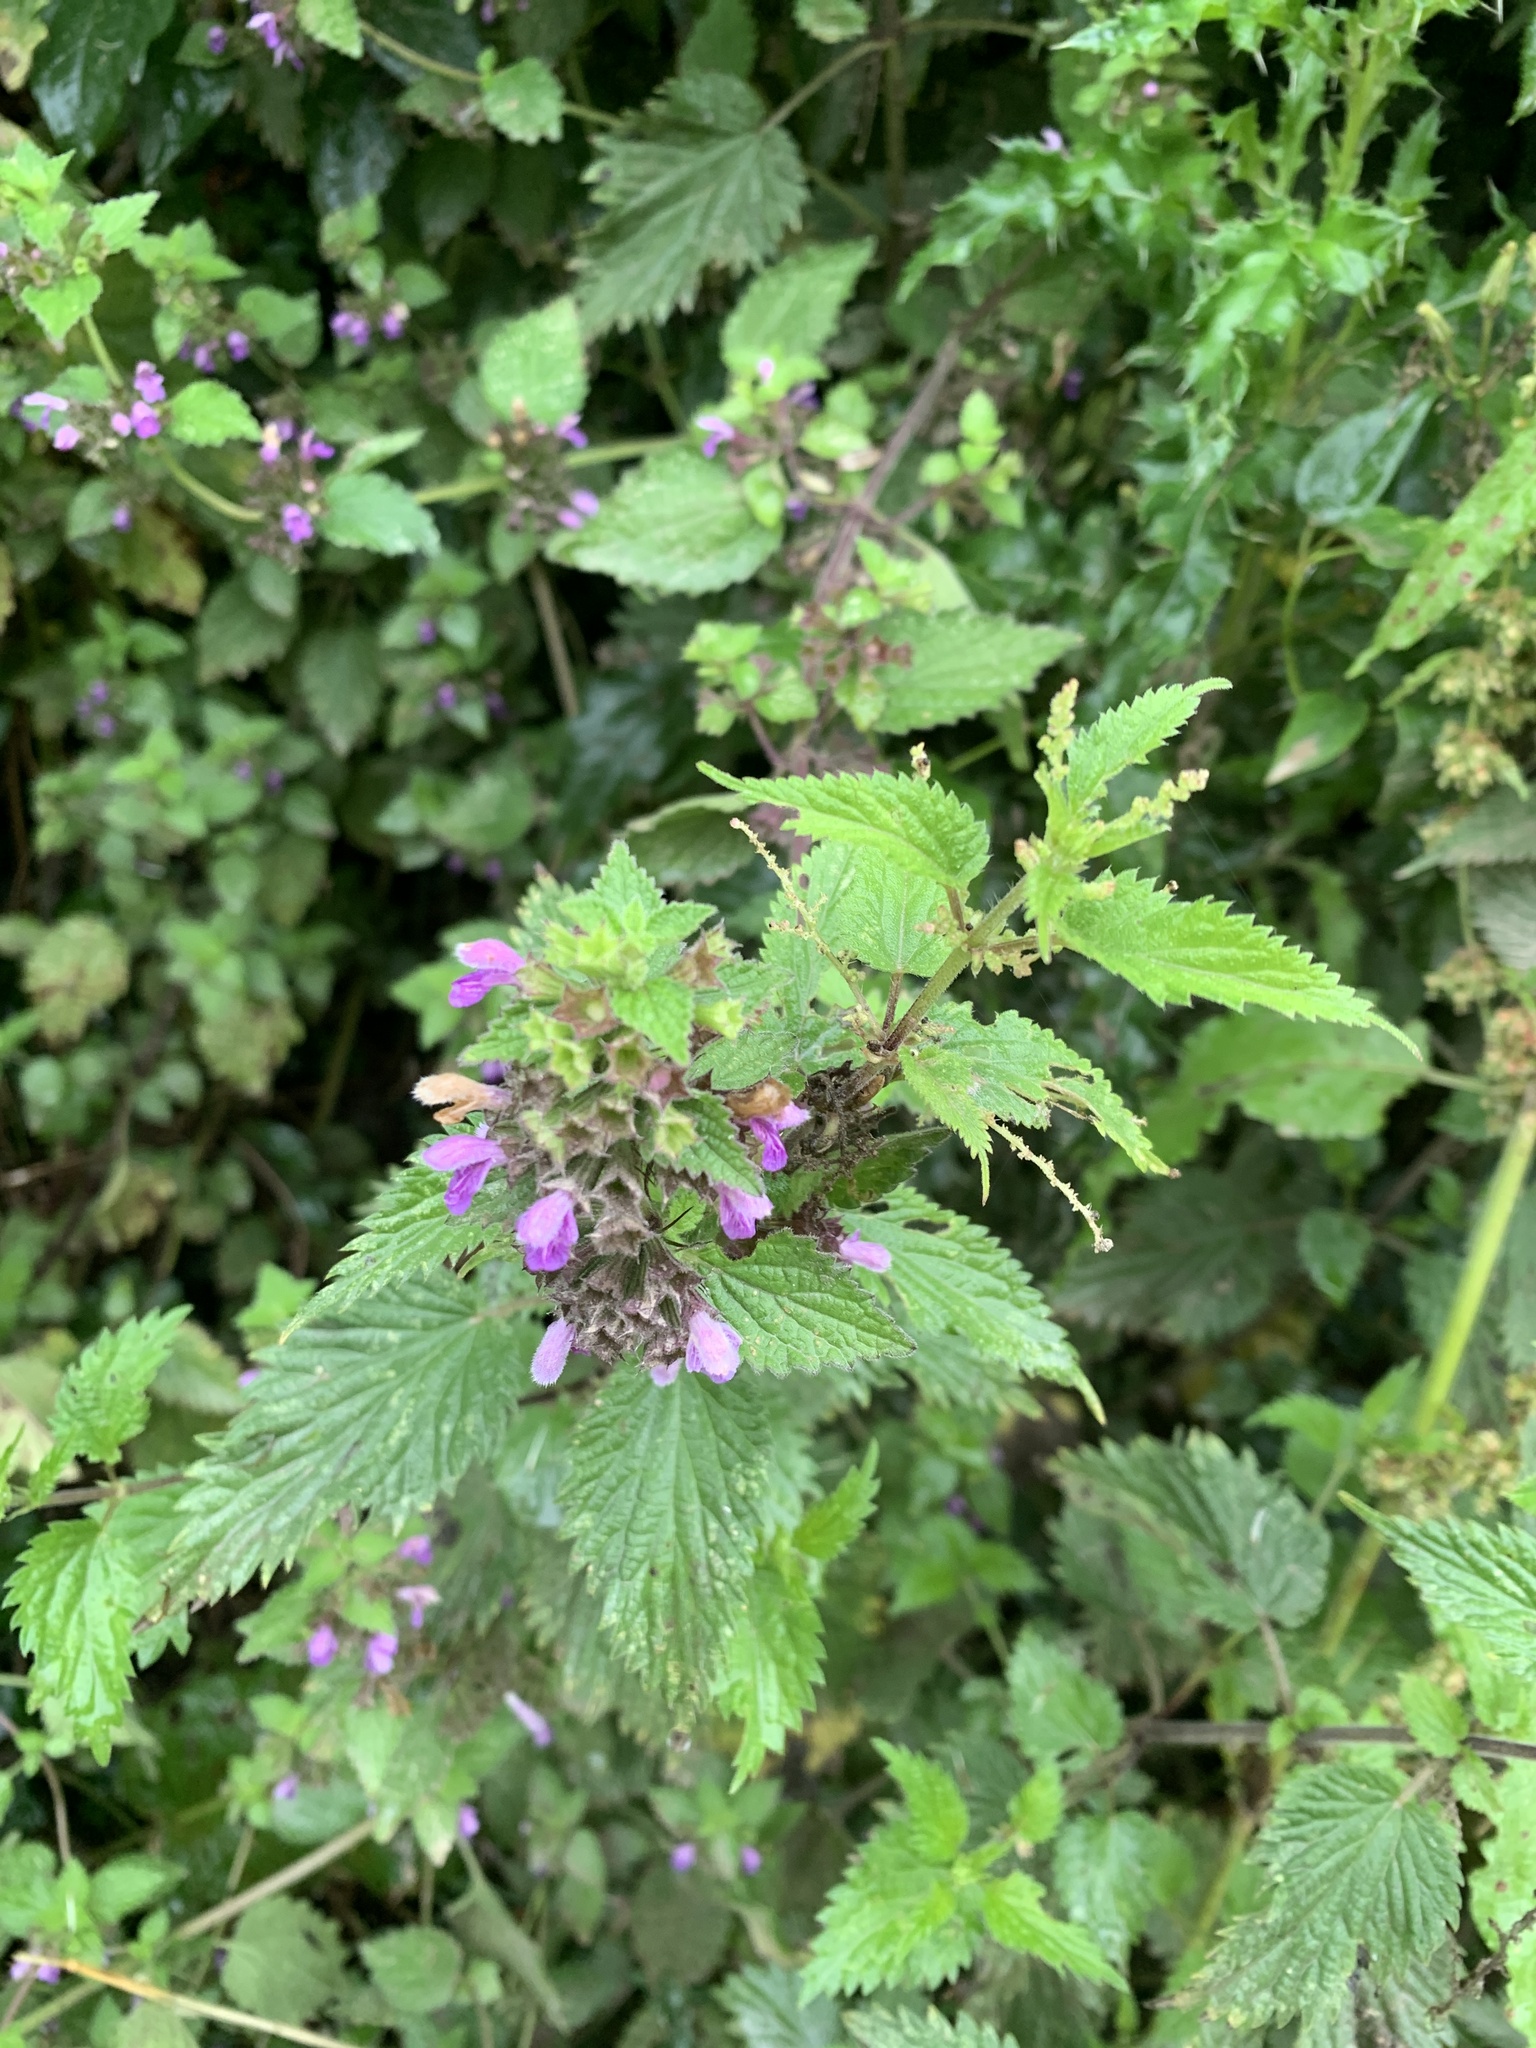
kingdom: Plantae
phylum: Tracheophyta
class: Magnoliopsida
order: Lamiales
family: Lamiaceae
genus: Ballota
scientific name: Ballota nigra
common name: Black horehound
